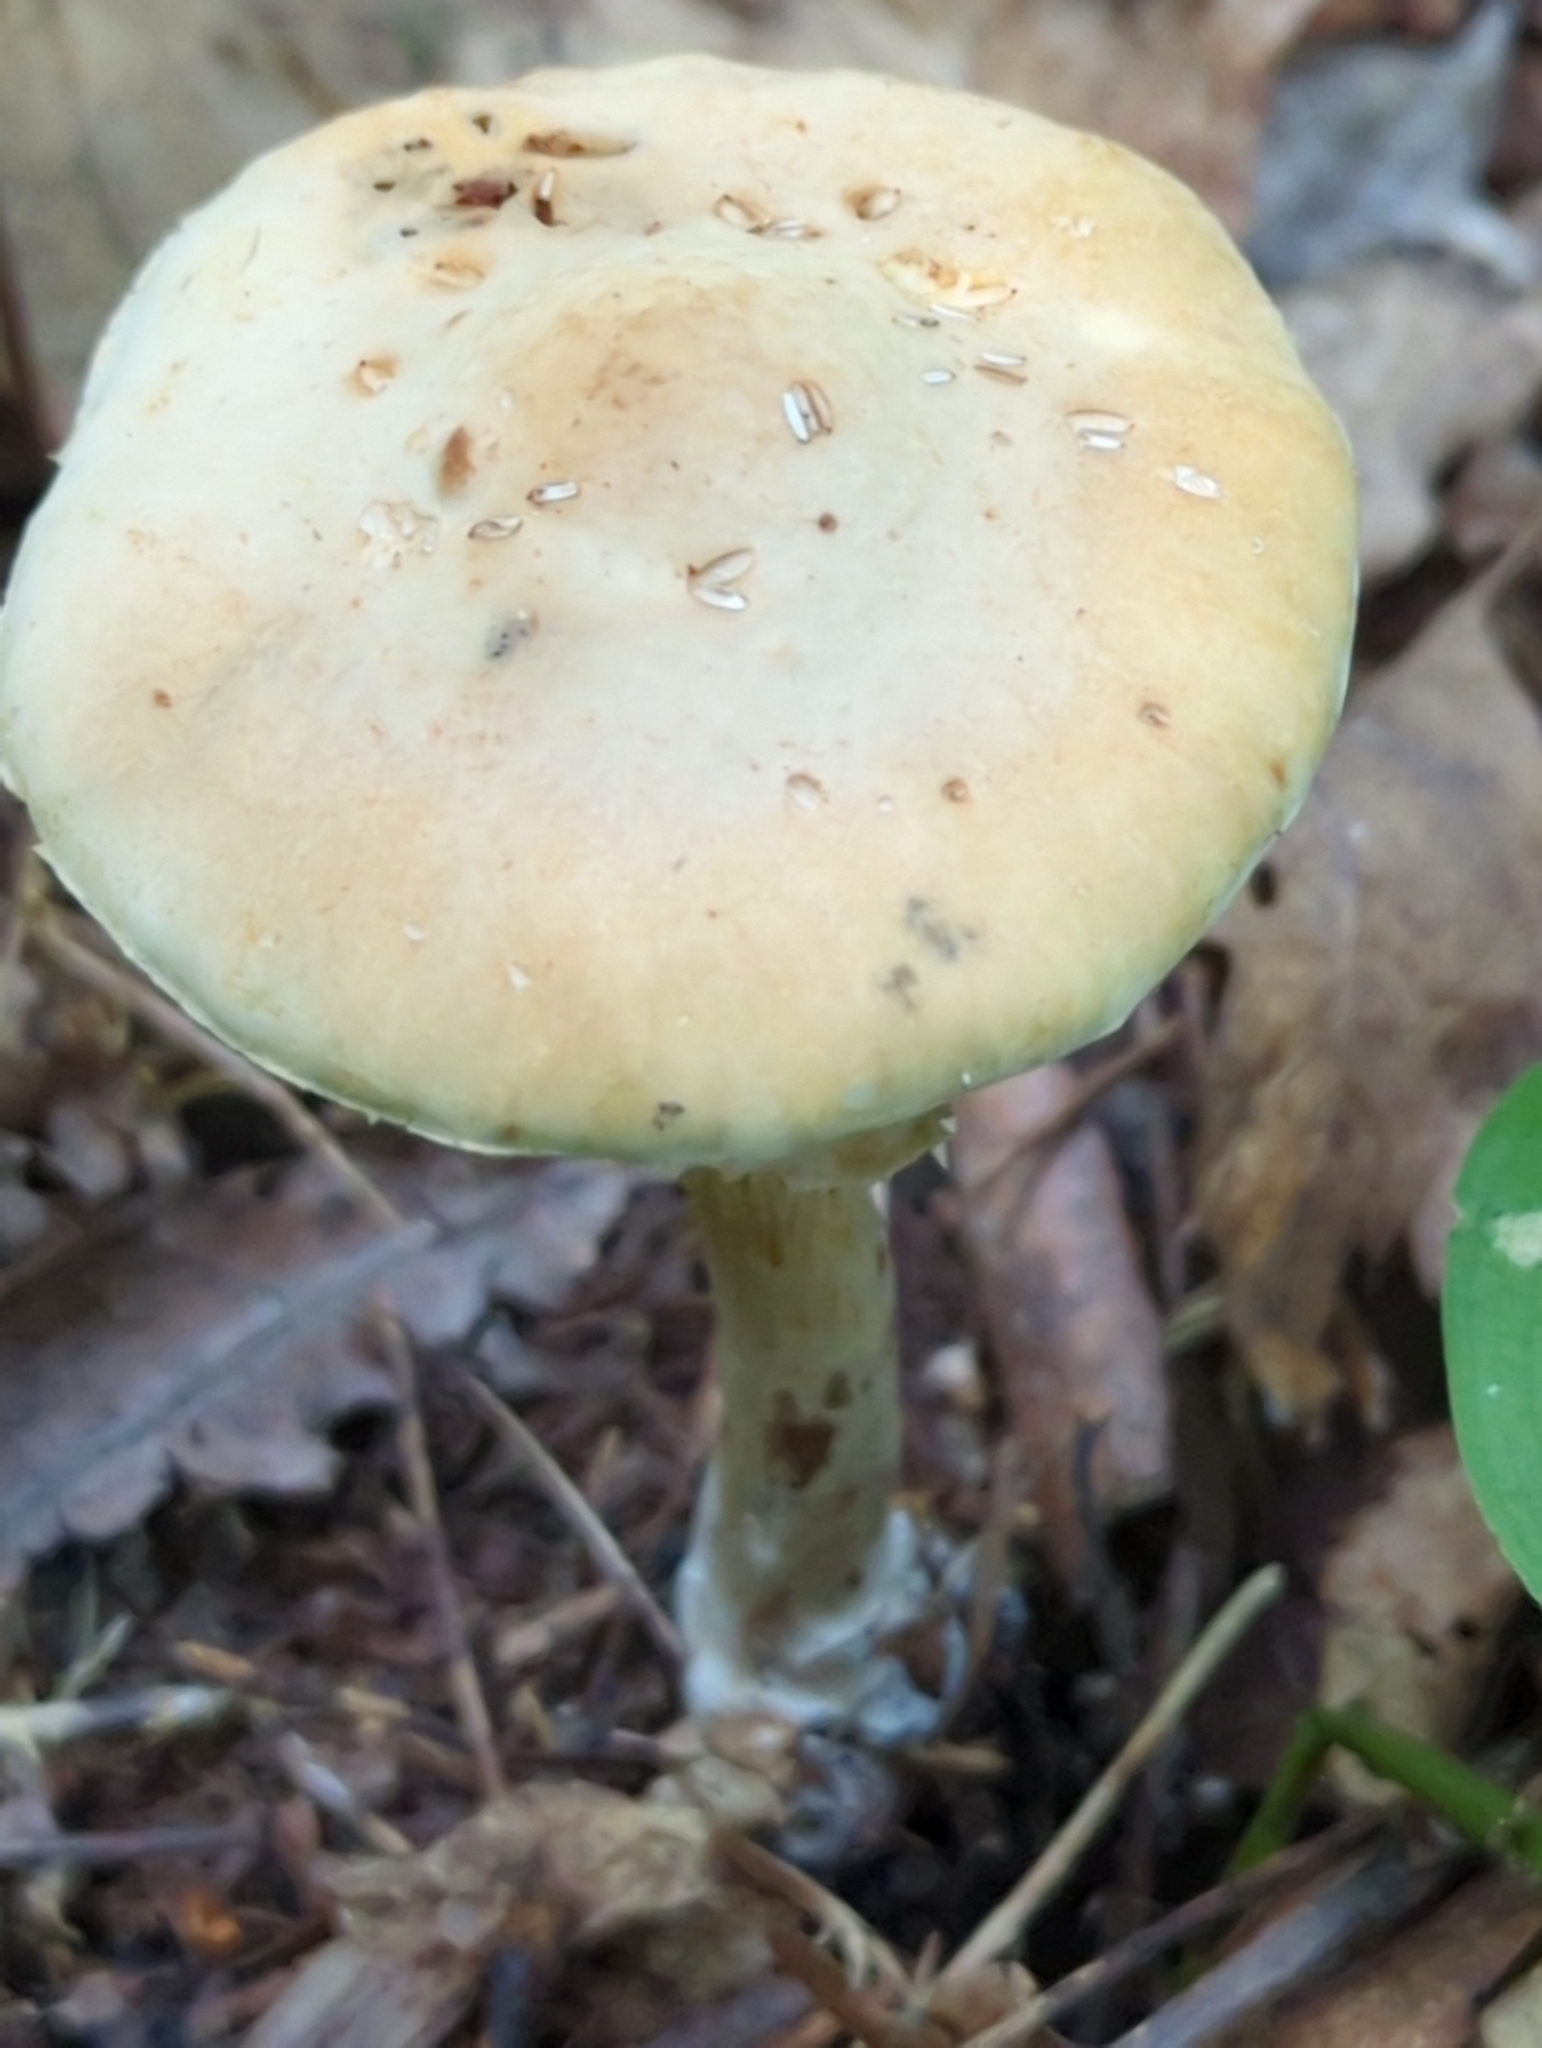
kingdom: Fungi
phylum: Basidiomycota
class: Agaricomycetes
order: Agaricales
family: Strophariaceae
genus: Agrocybe
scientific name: Agrocybe acericola
